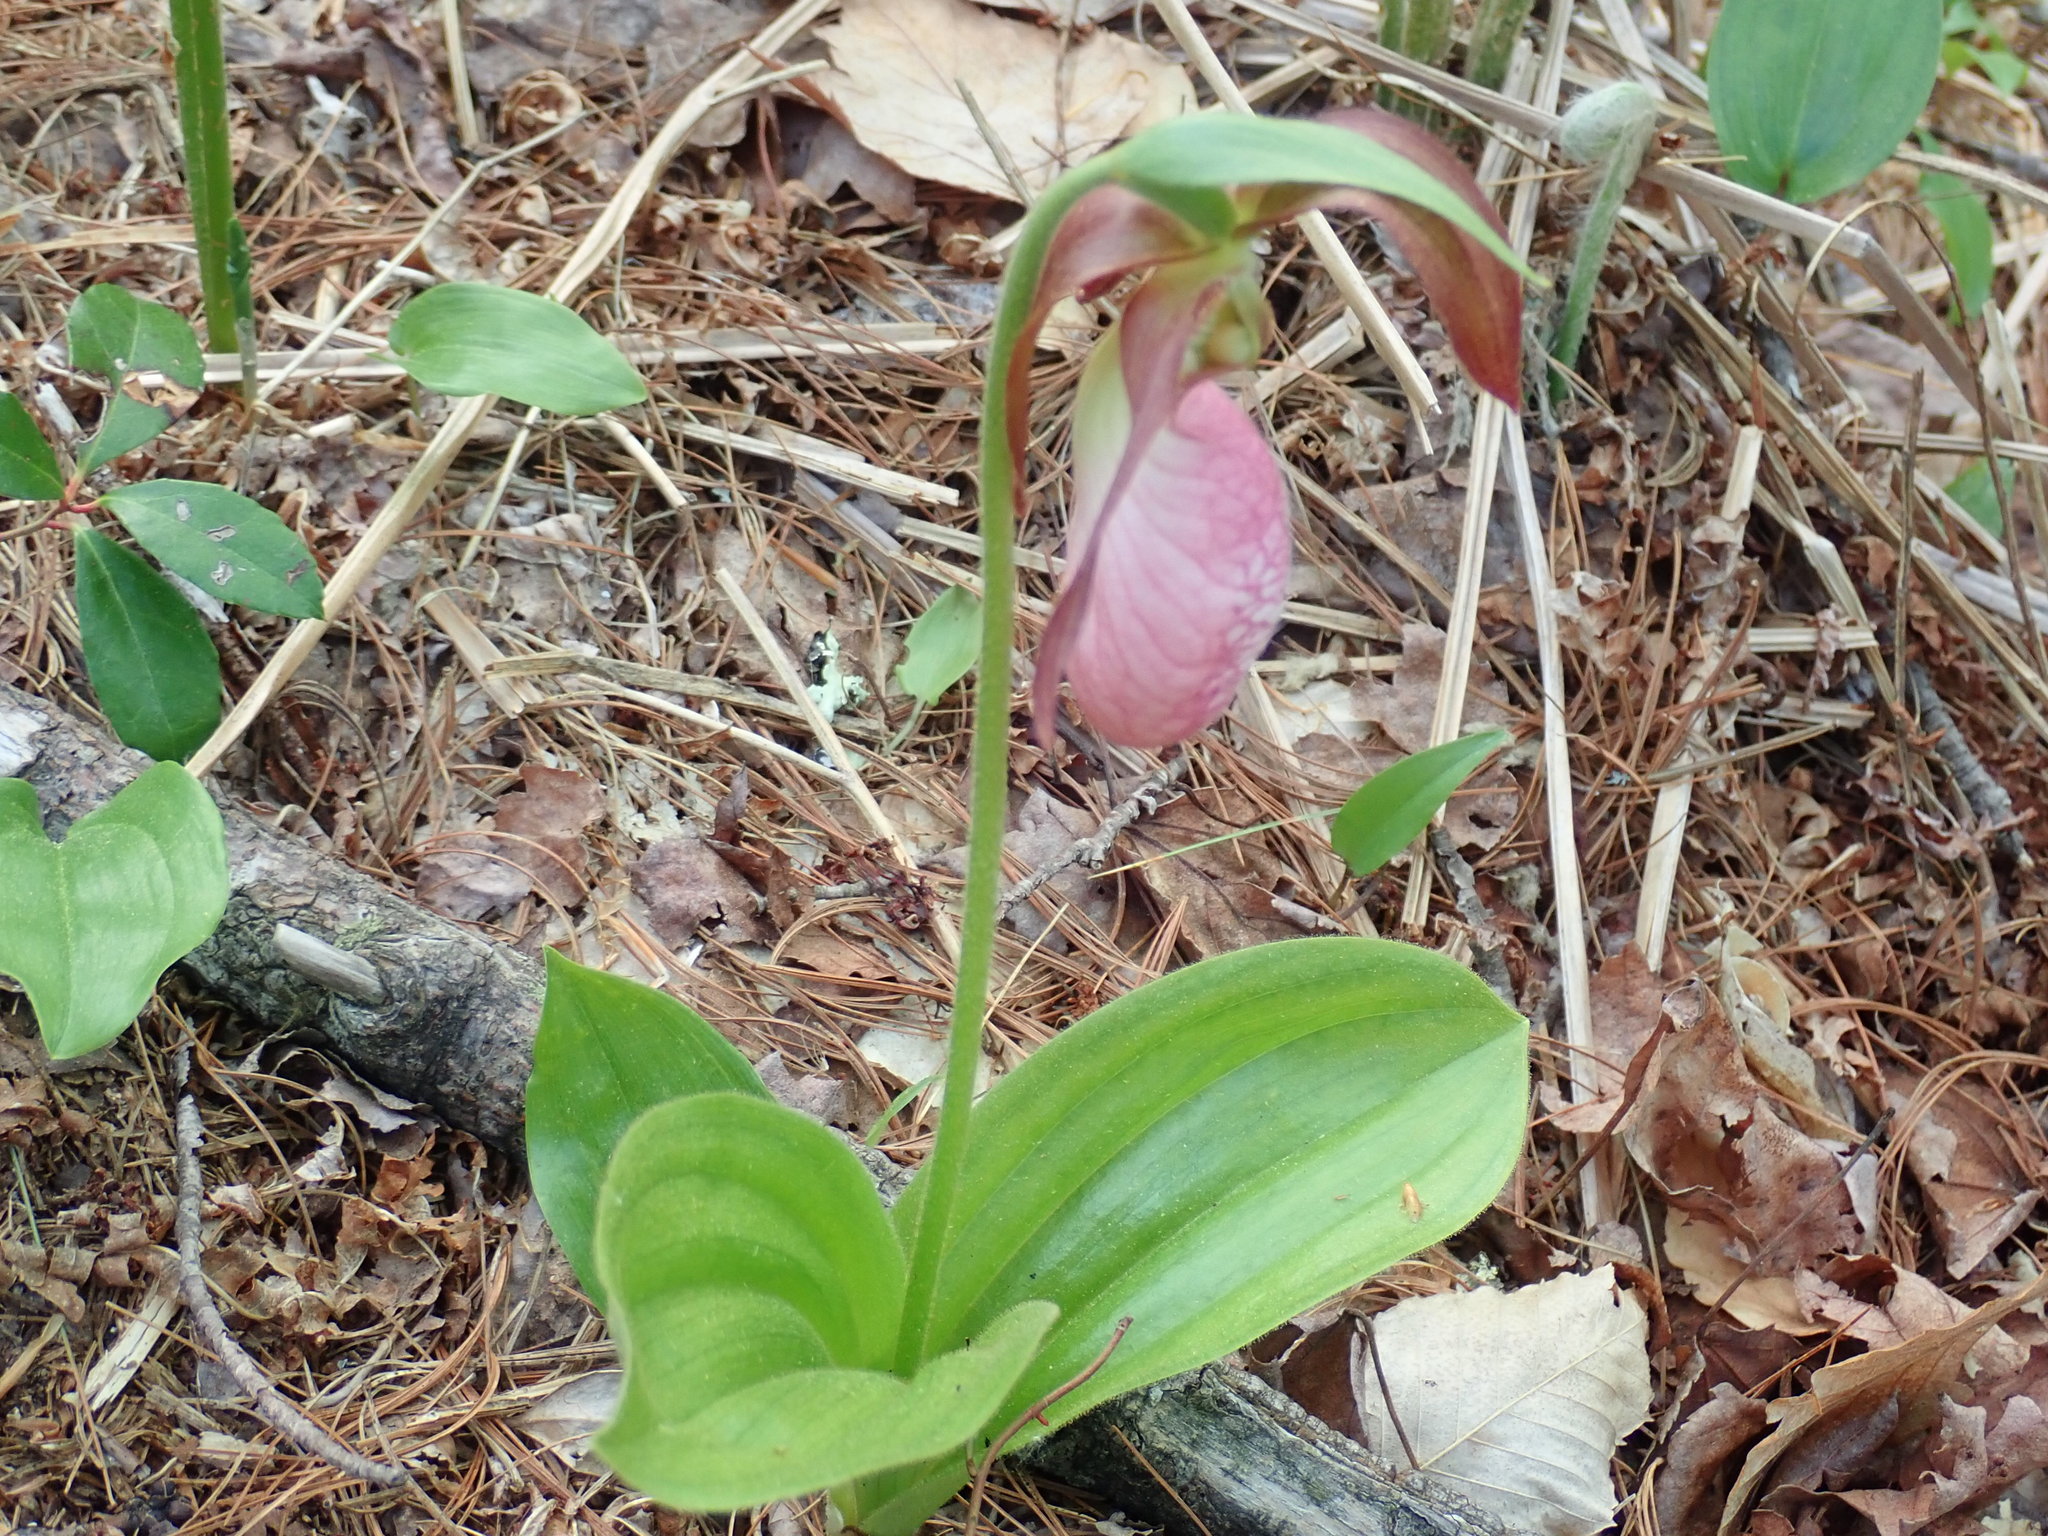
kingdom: Plantae
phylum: Tracheophyta
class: Liliopsida
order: Asparagales
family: Orchidaceae
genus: Cypripedium
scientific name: Cypripedium acaule
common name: Pink lady's-slipper
